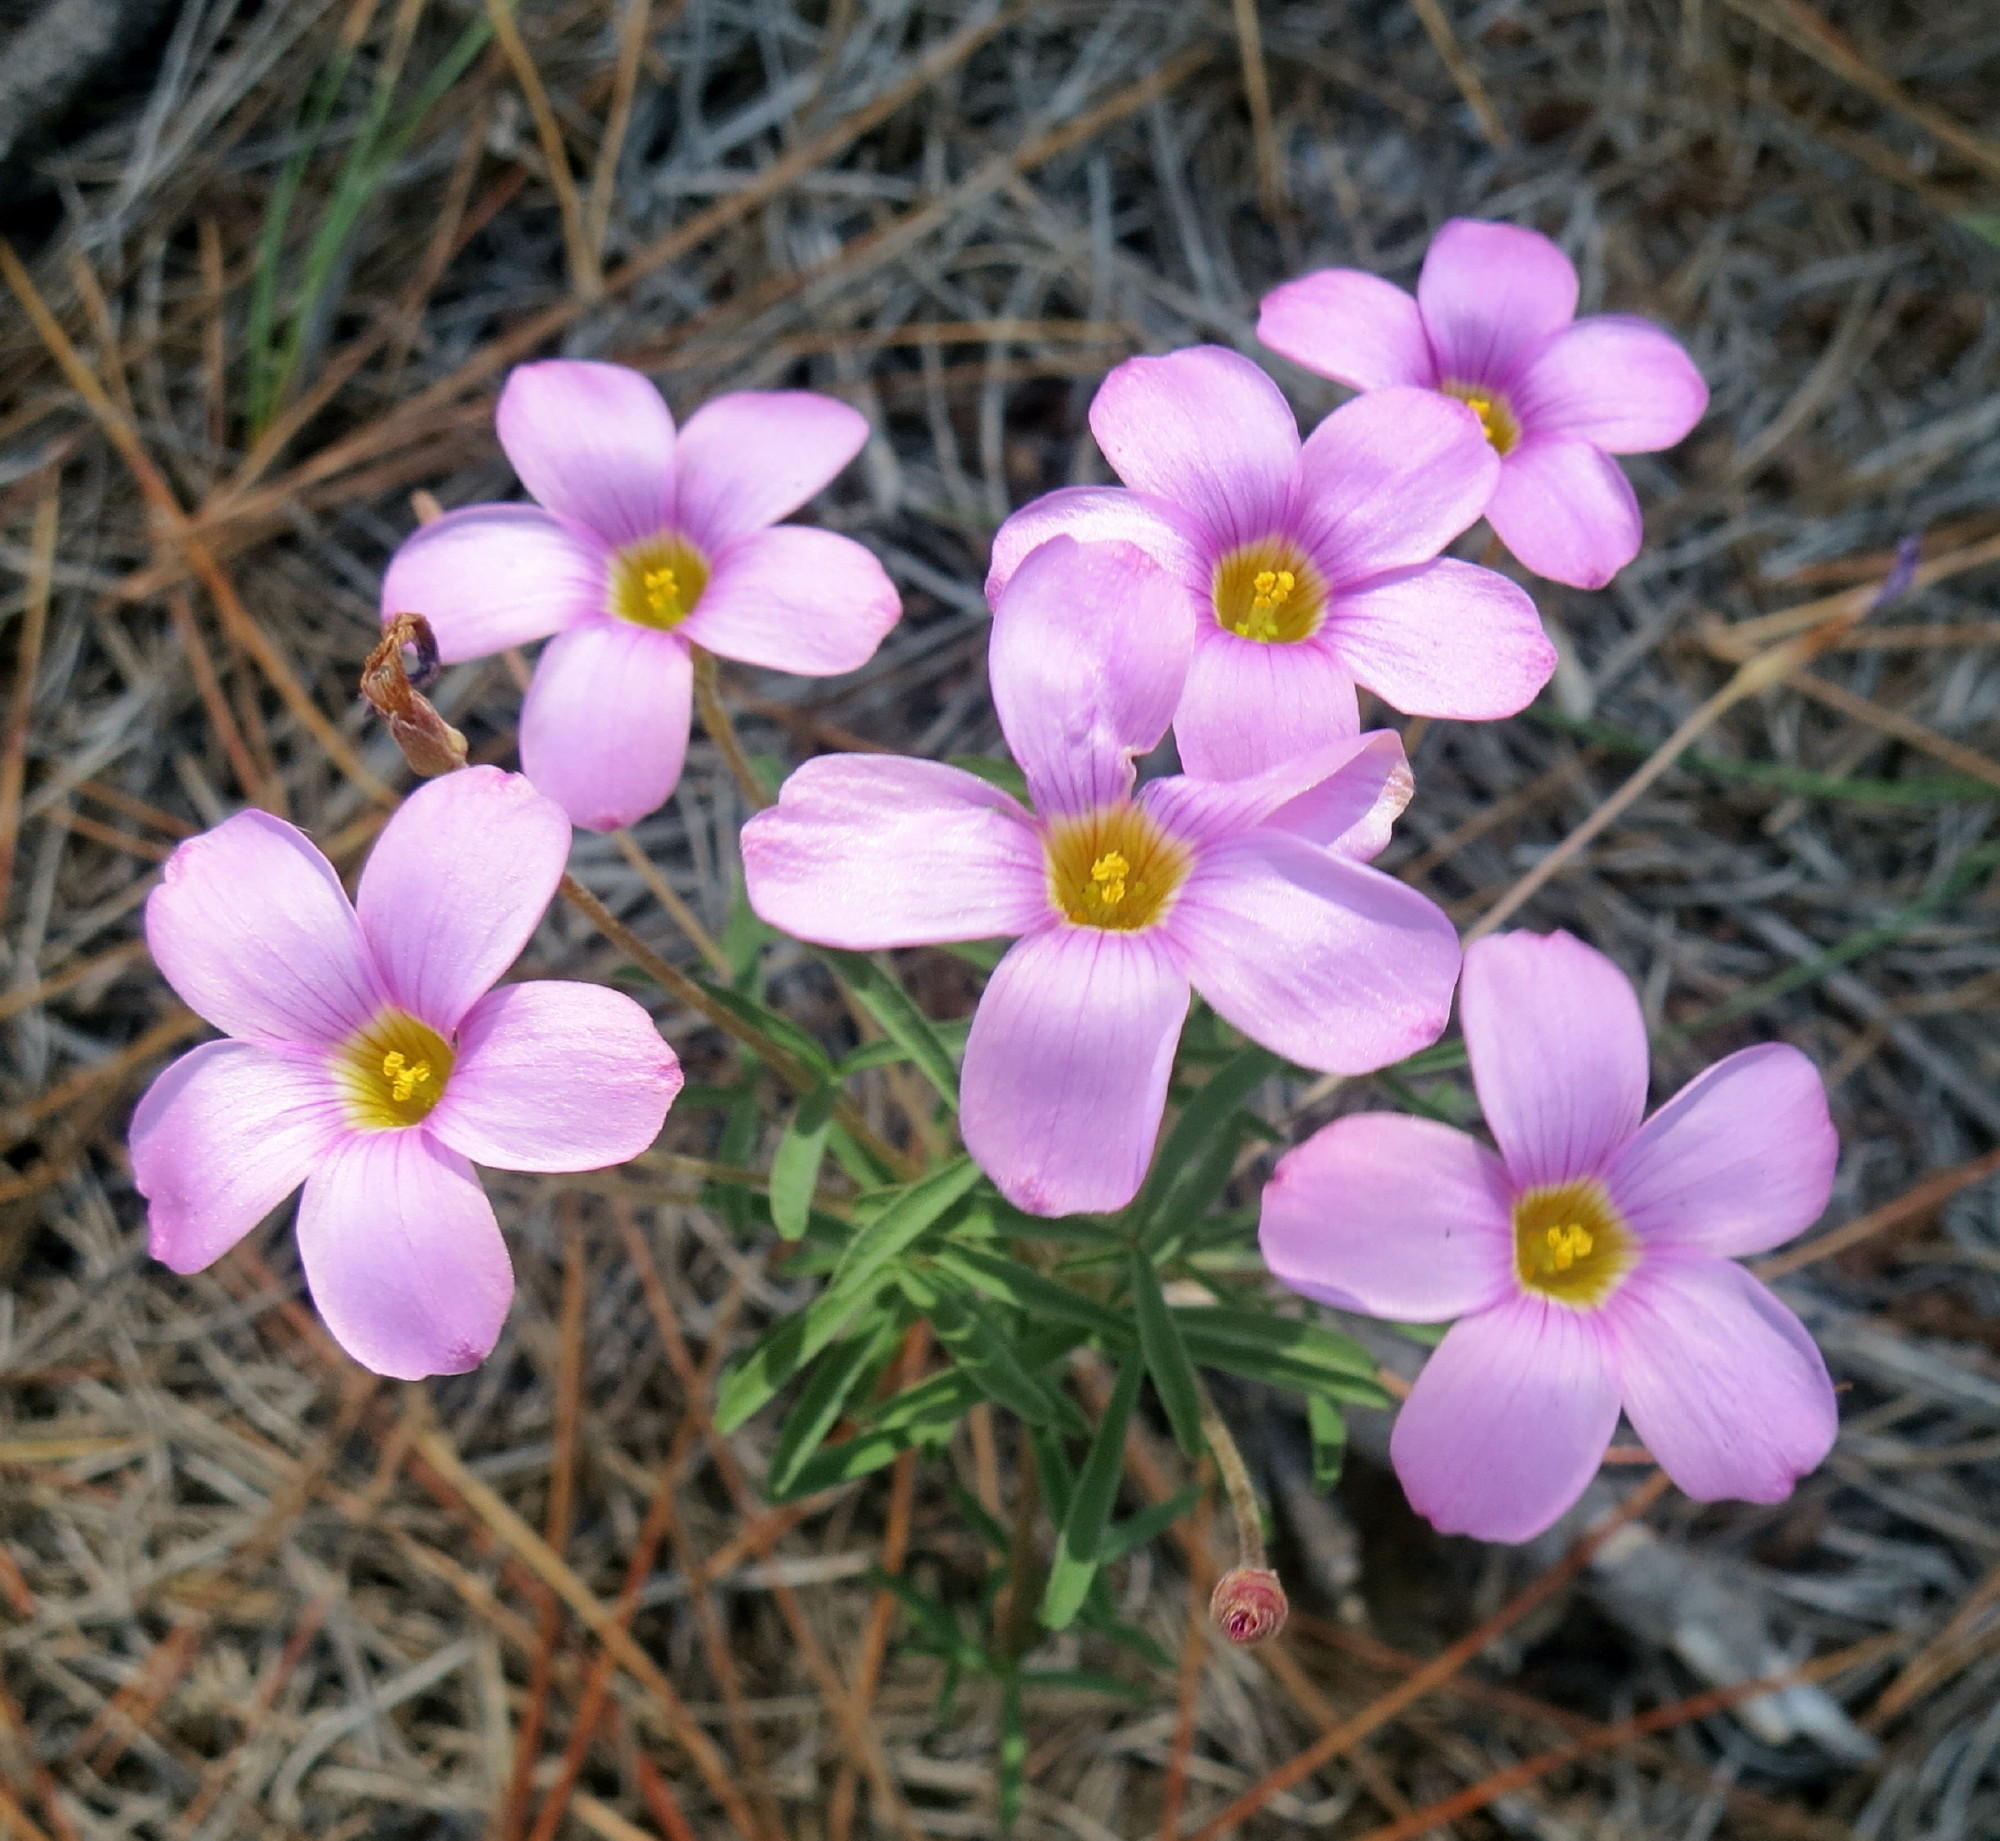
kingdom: Plantae
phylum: Tracheophyta
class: Magnoliopsida
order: Oxalidales
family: Oxalidaceae
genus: Oxalis
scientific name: Oxalis ciliaris
